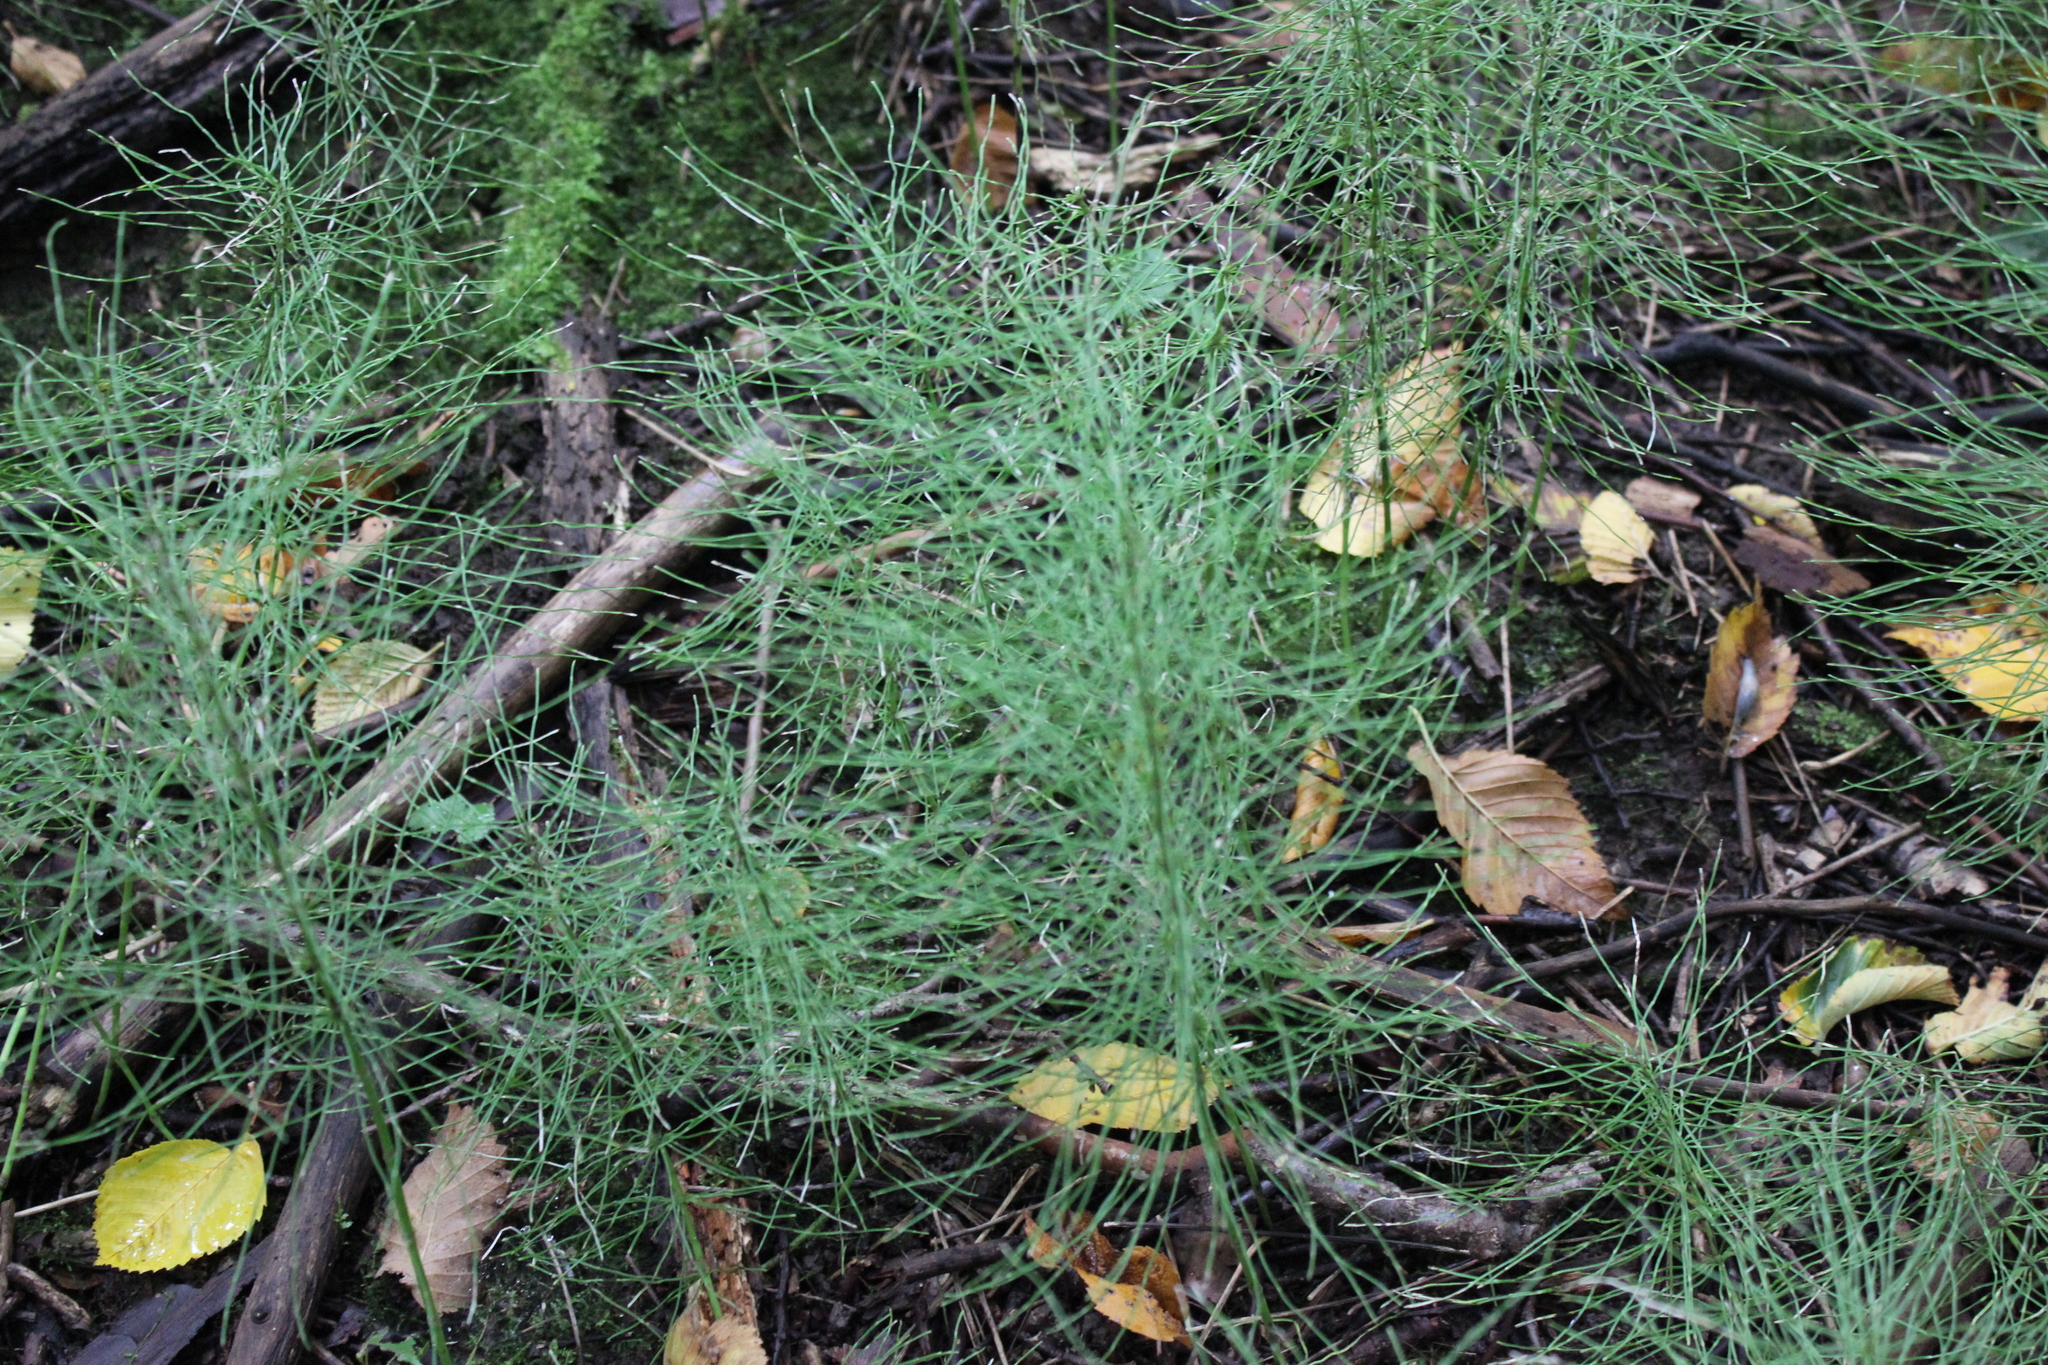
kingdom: Plantae
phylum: Tracheophyta
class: Polypodiopsida
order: Equisetales
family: Equisetaceae
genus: Equisetum
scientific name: Equisetum pratense
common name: Meadow horsetail
